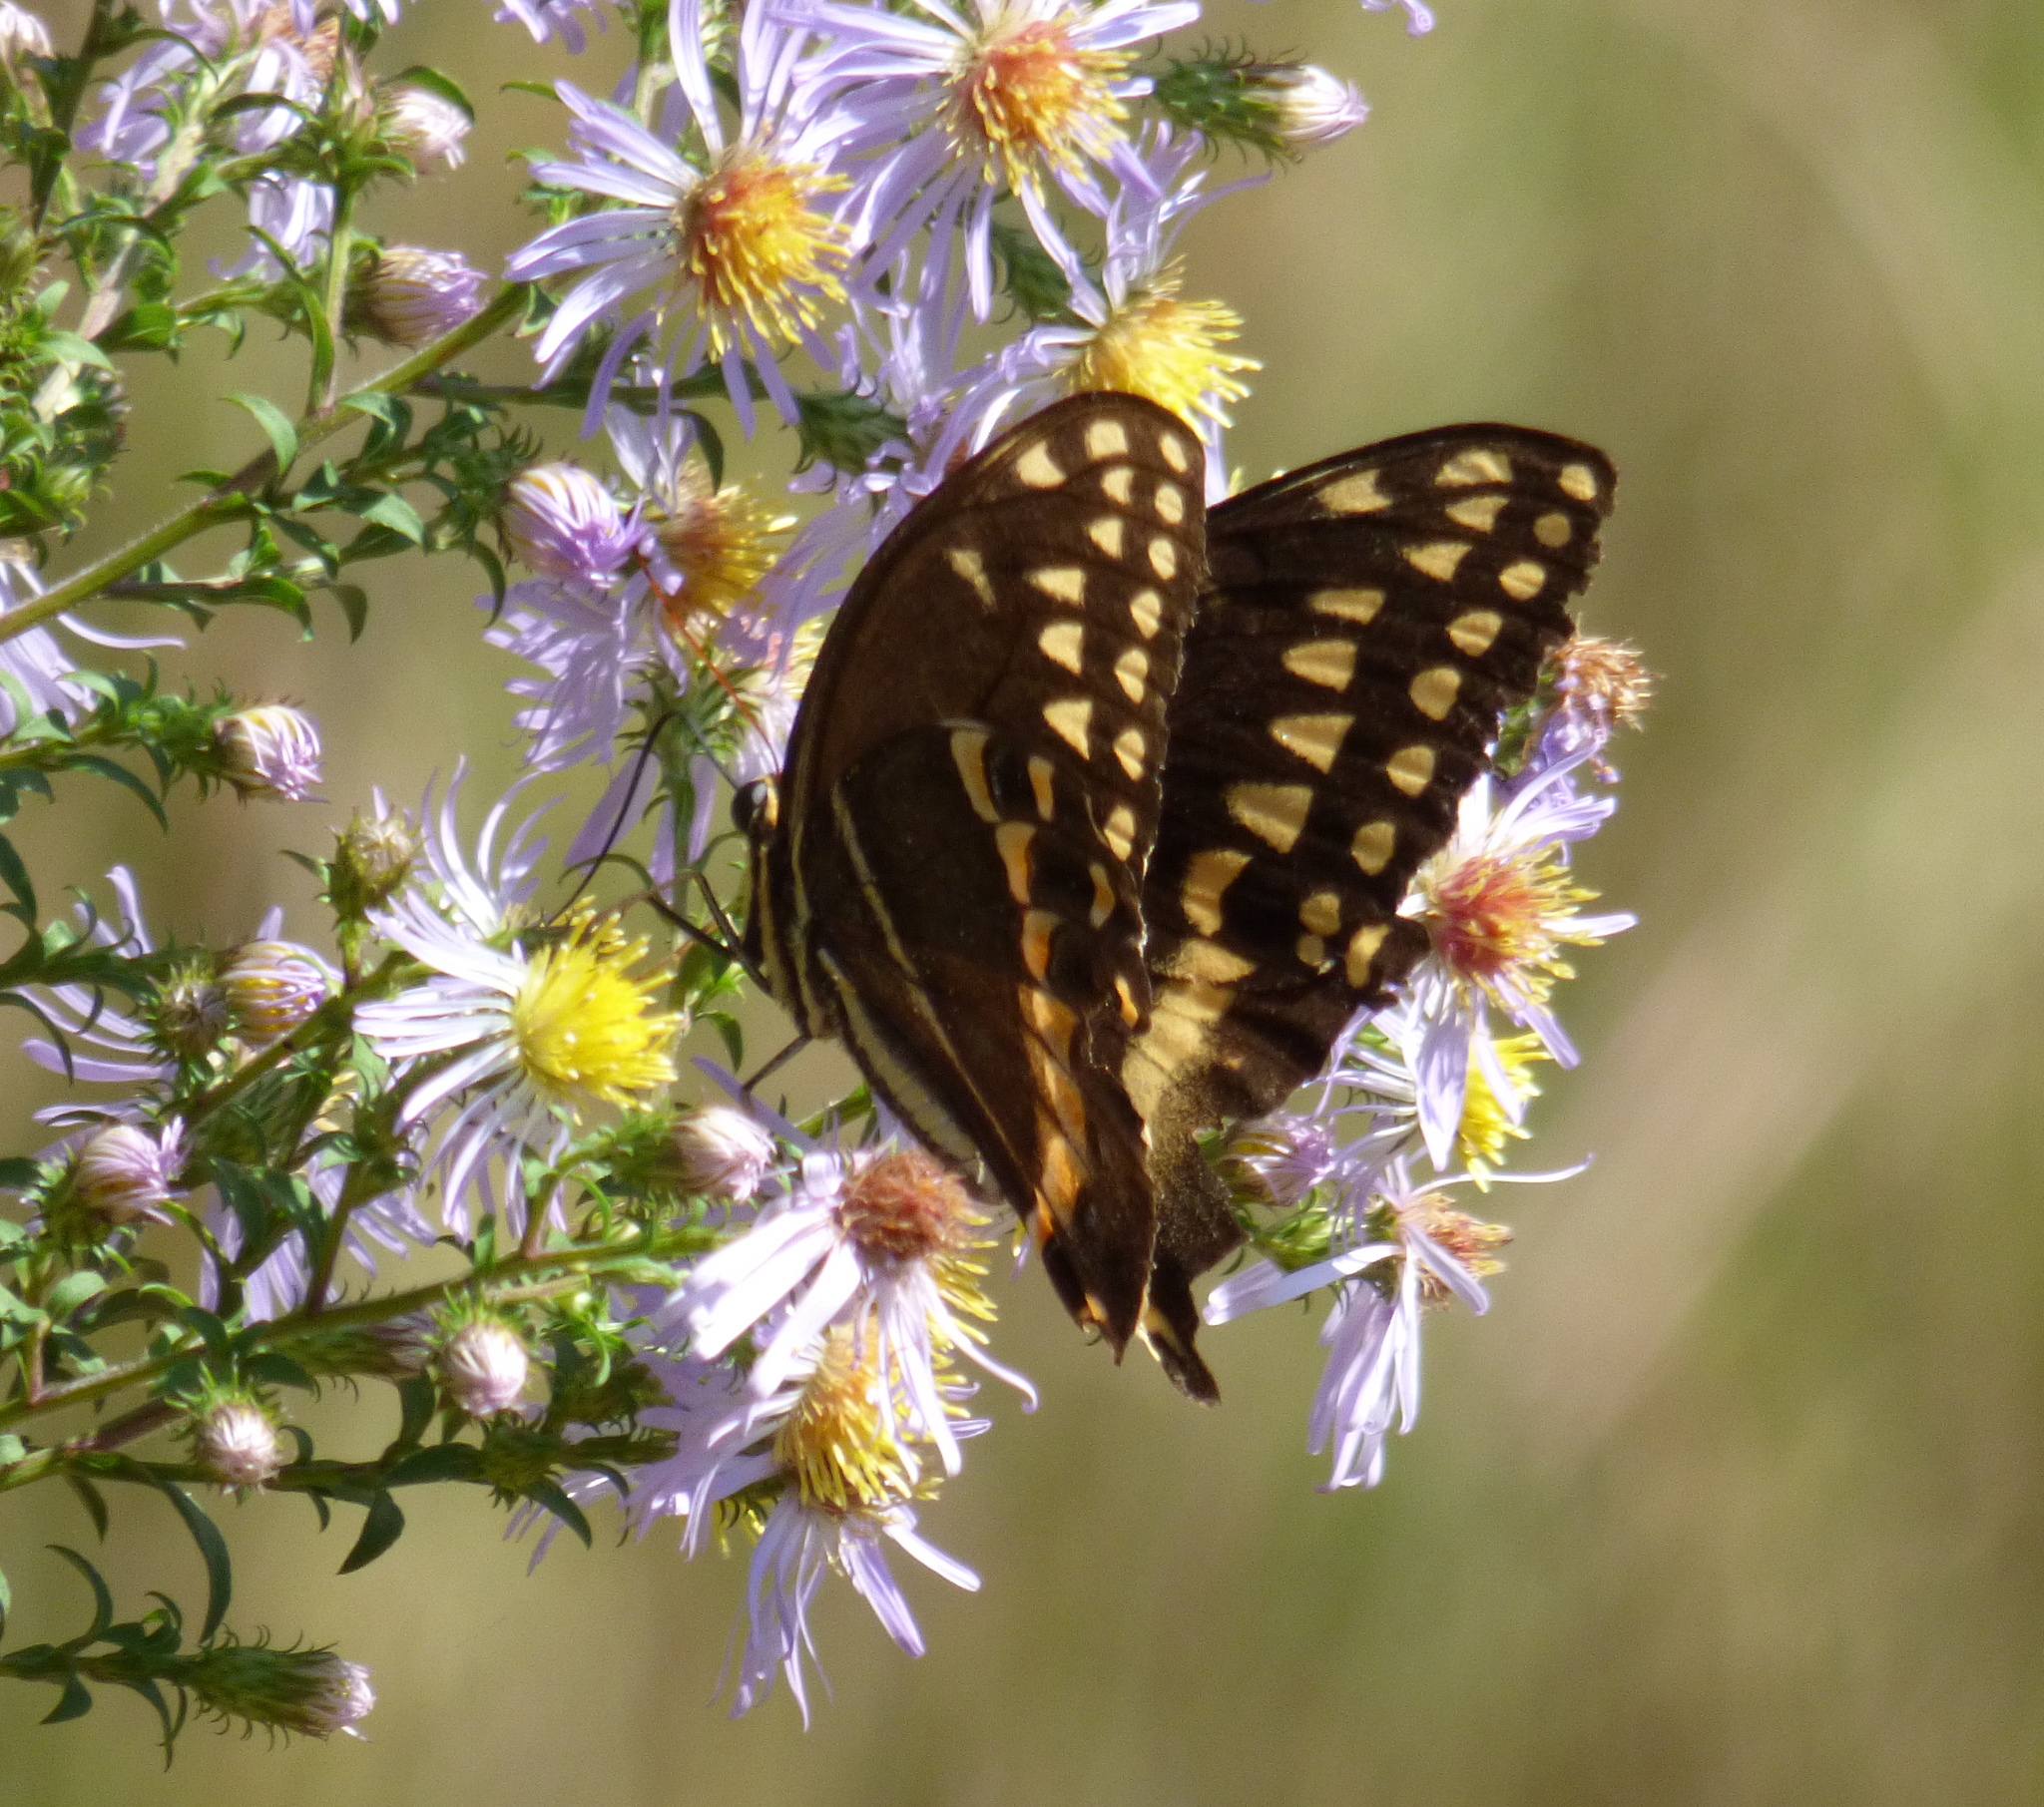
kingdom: Animalia
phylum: Arthropoda
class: Insecta
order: Lepidoptera
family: Papilionidae
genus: Papilio
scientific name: Papilio palamedes
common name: Palamedes swallowtail
